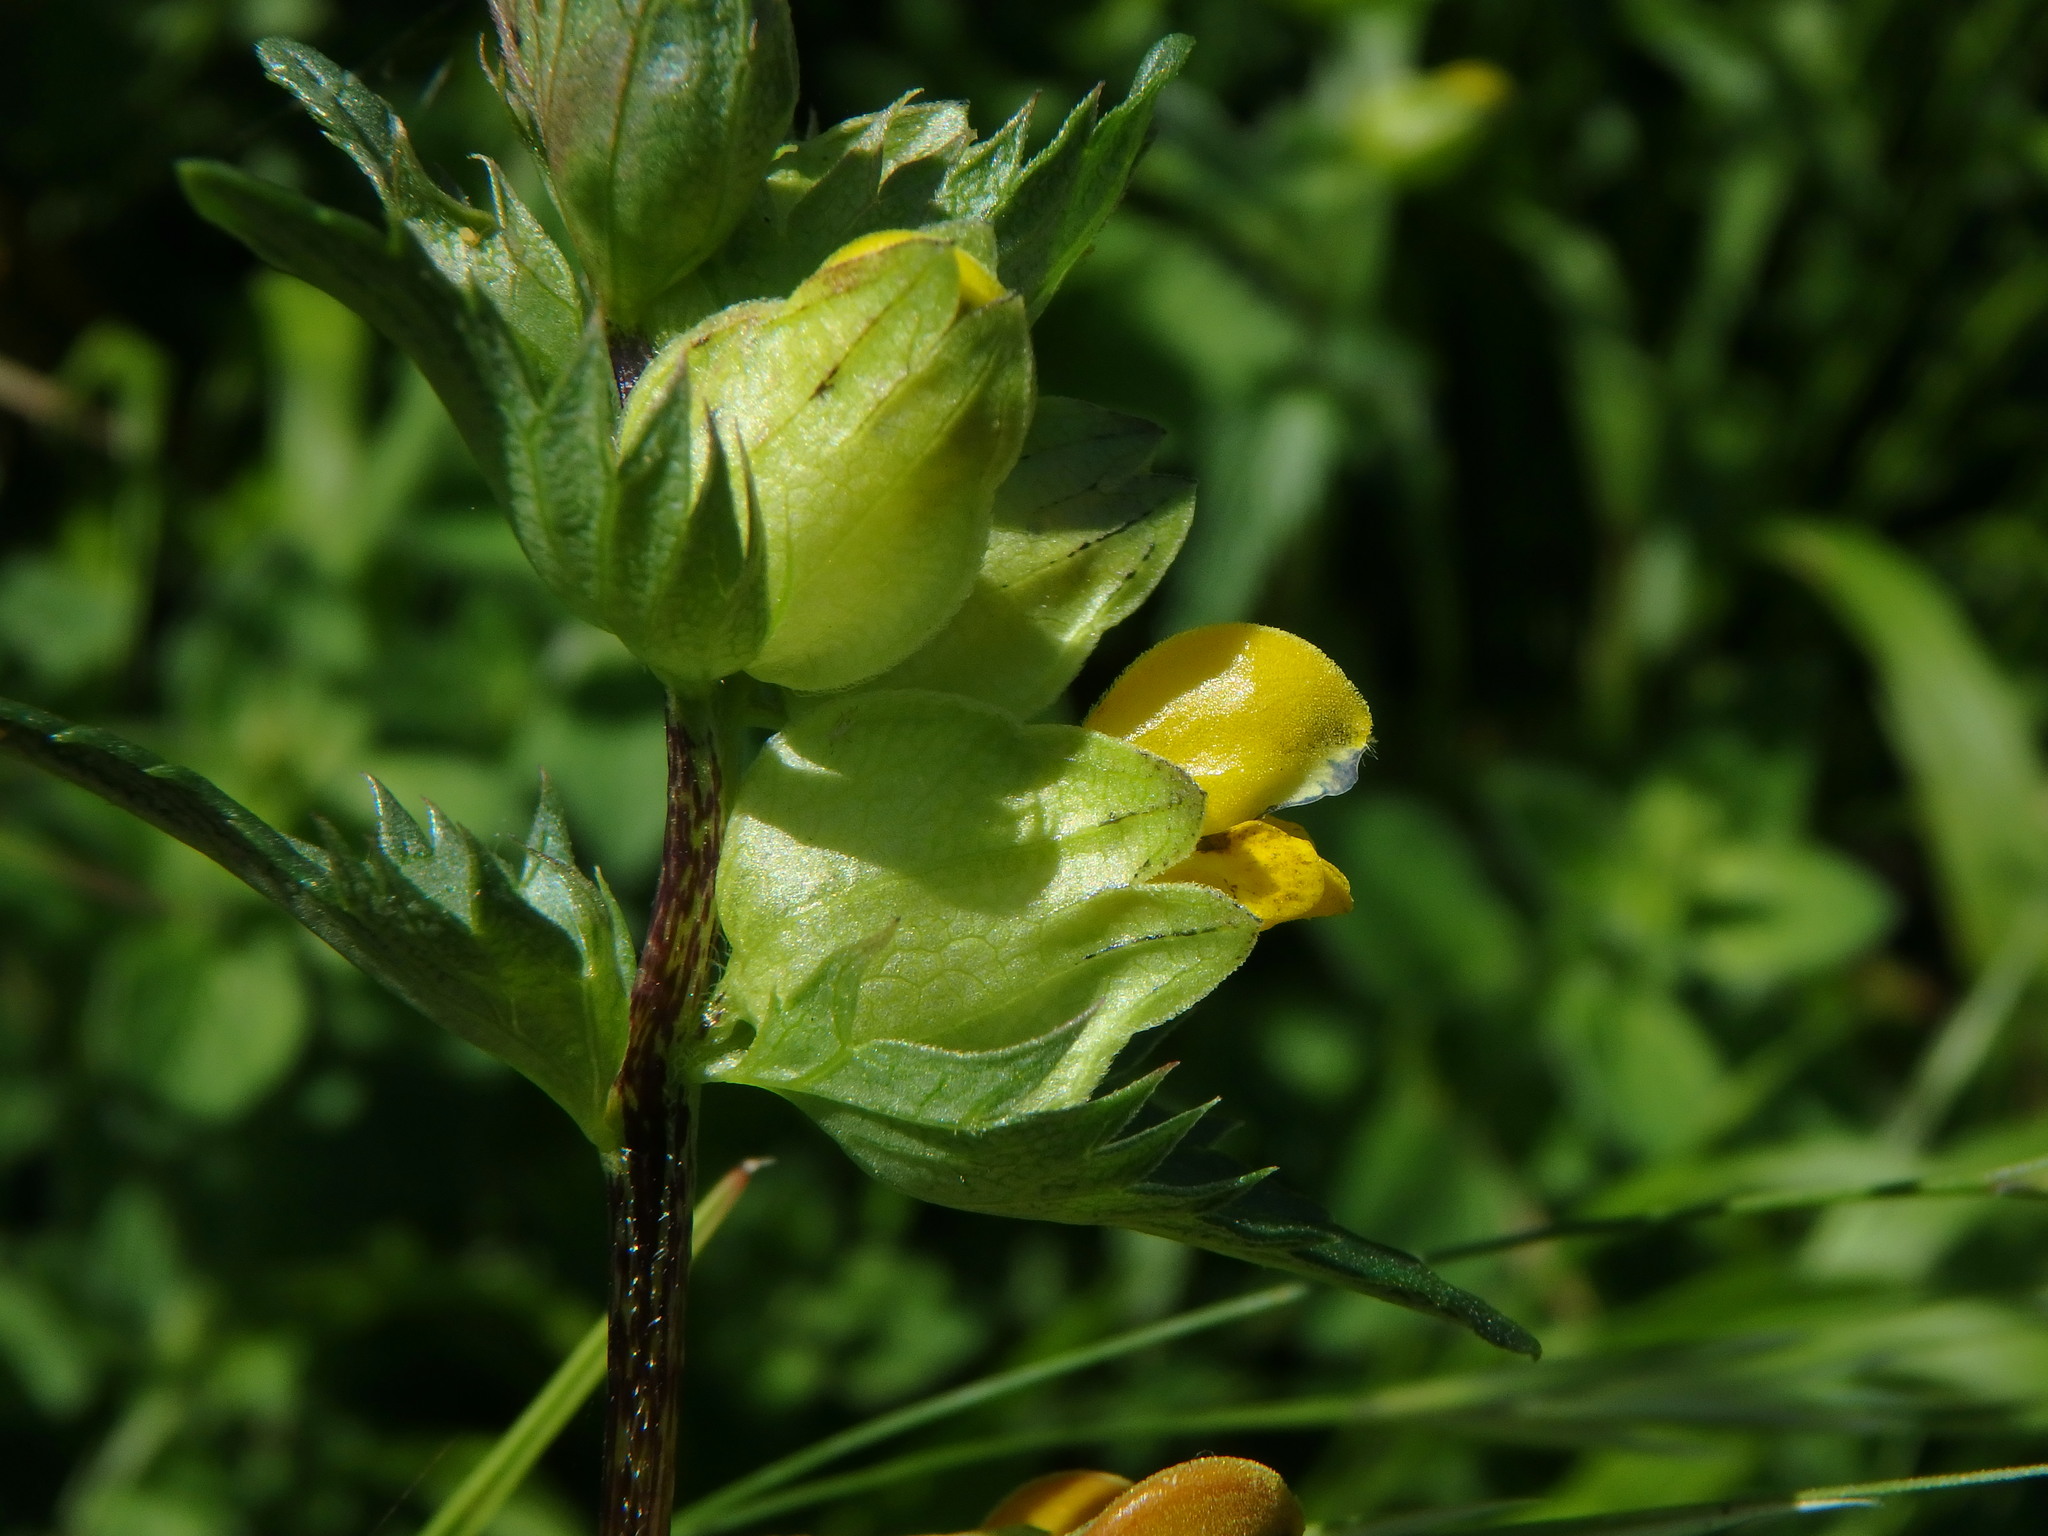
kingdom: Plantae
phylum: Tracheophyta
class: Magnoliopsida
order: Lamiales
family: Orobanchaceae
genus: Rhinanthus
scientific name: Rhinanthus minor
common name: Yellow-rattle
